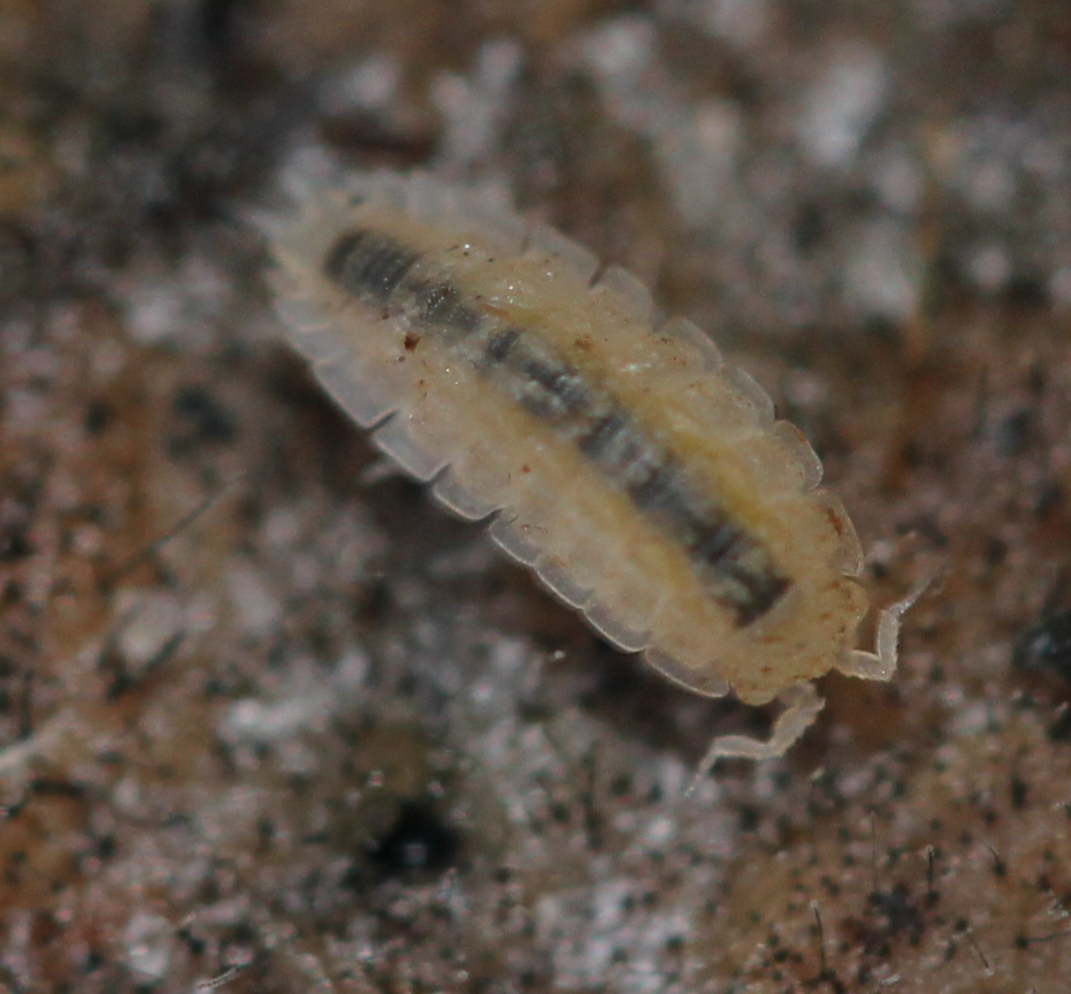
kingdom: Animalia
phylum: Arthropoda
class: Malacostraca
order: Isopoda
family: Trichoniscidae
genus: Haplophthalmus
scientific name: Haplophthalmus danicus
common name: Pillbug
